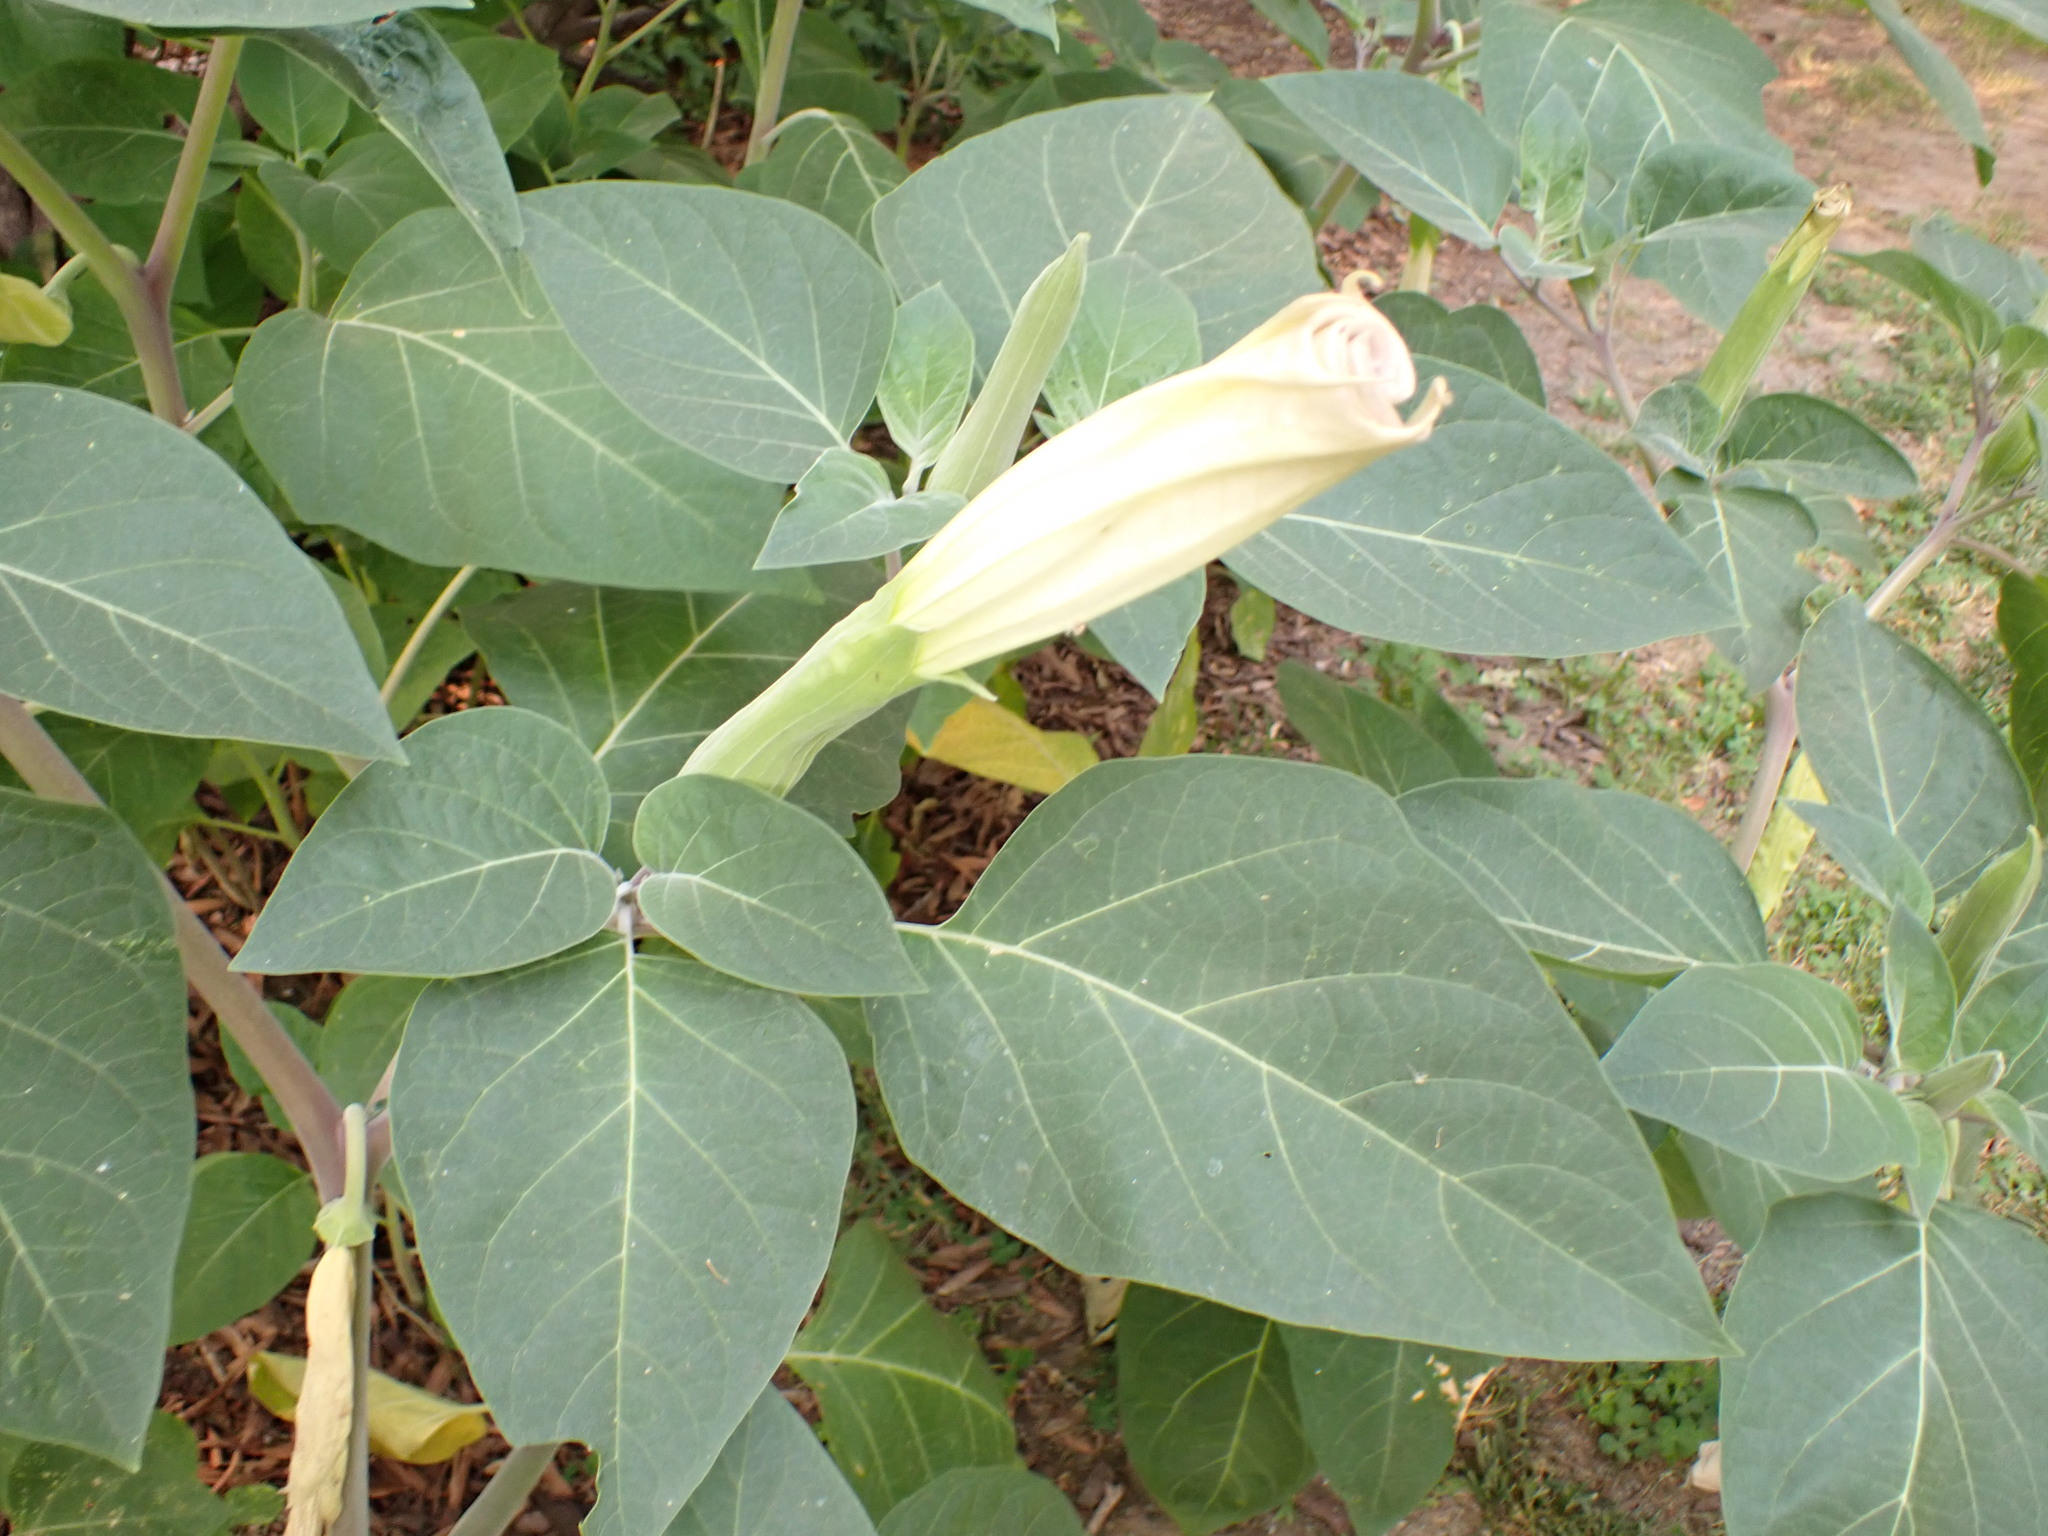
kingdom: Plantae
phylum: Tracheophyta
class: Magnoliopsida
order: Solanales
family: Solanaceae
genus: Datura
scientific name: Datura wrightii
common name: Sacred thorn-apple
